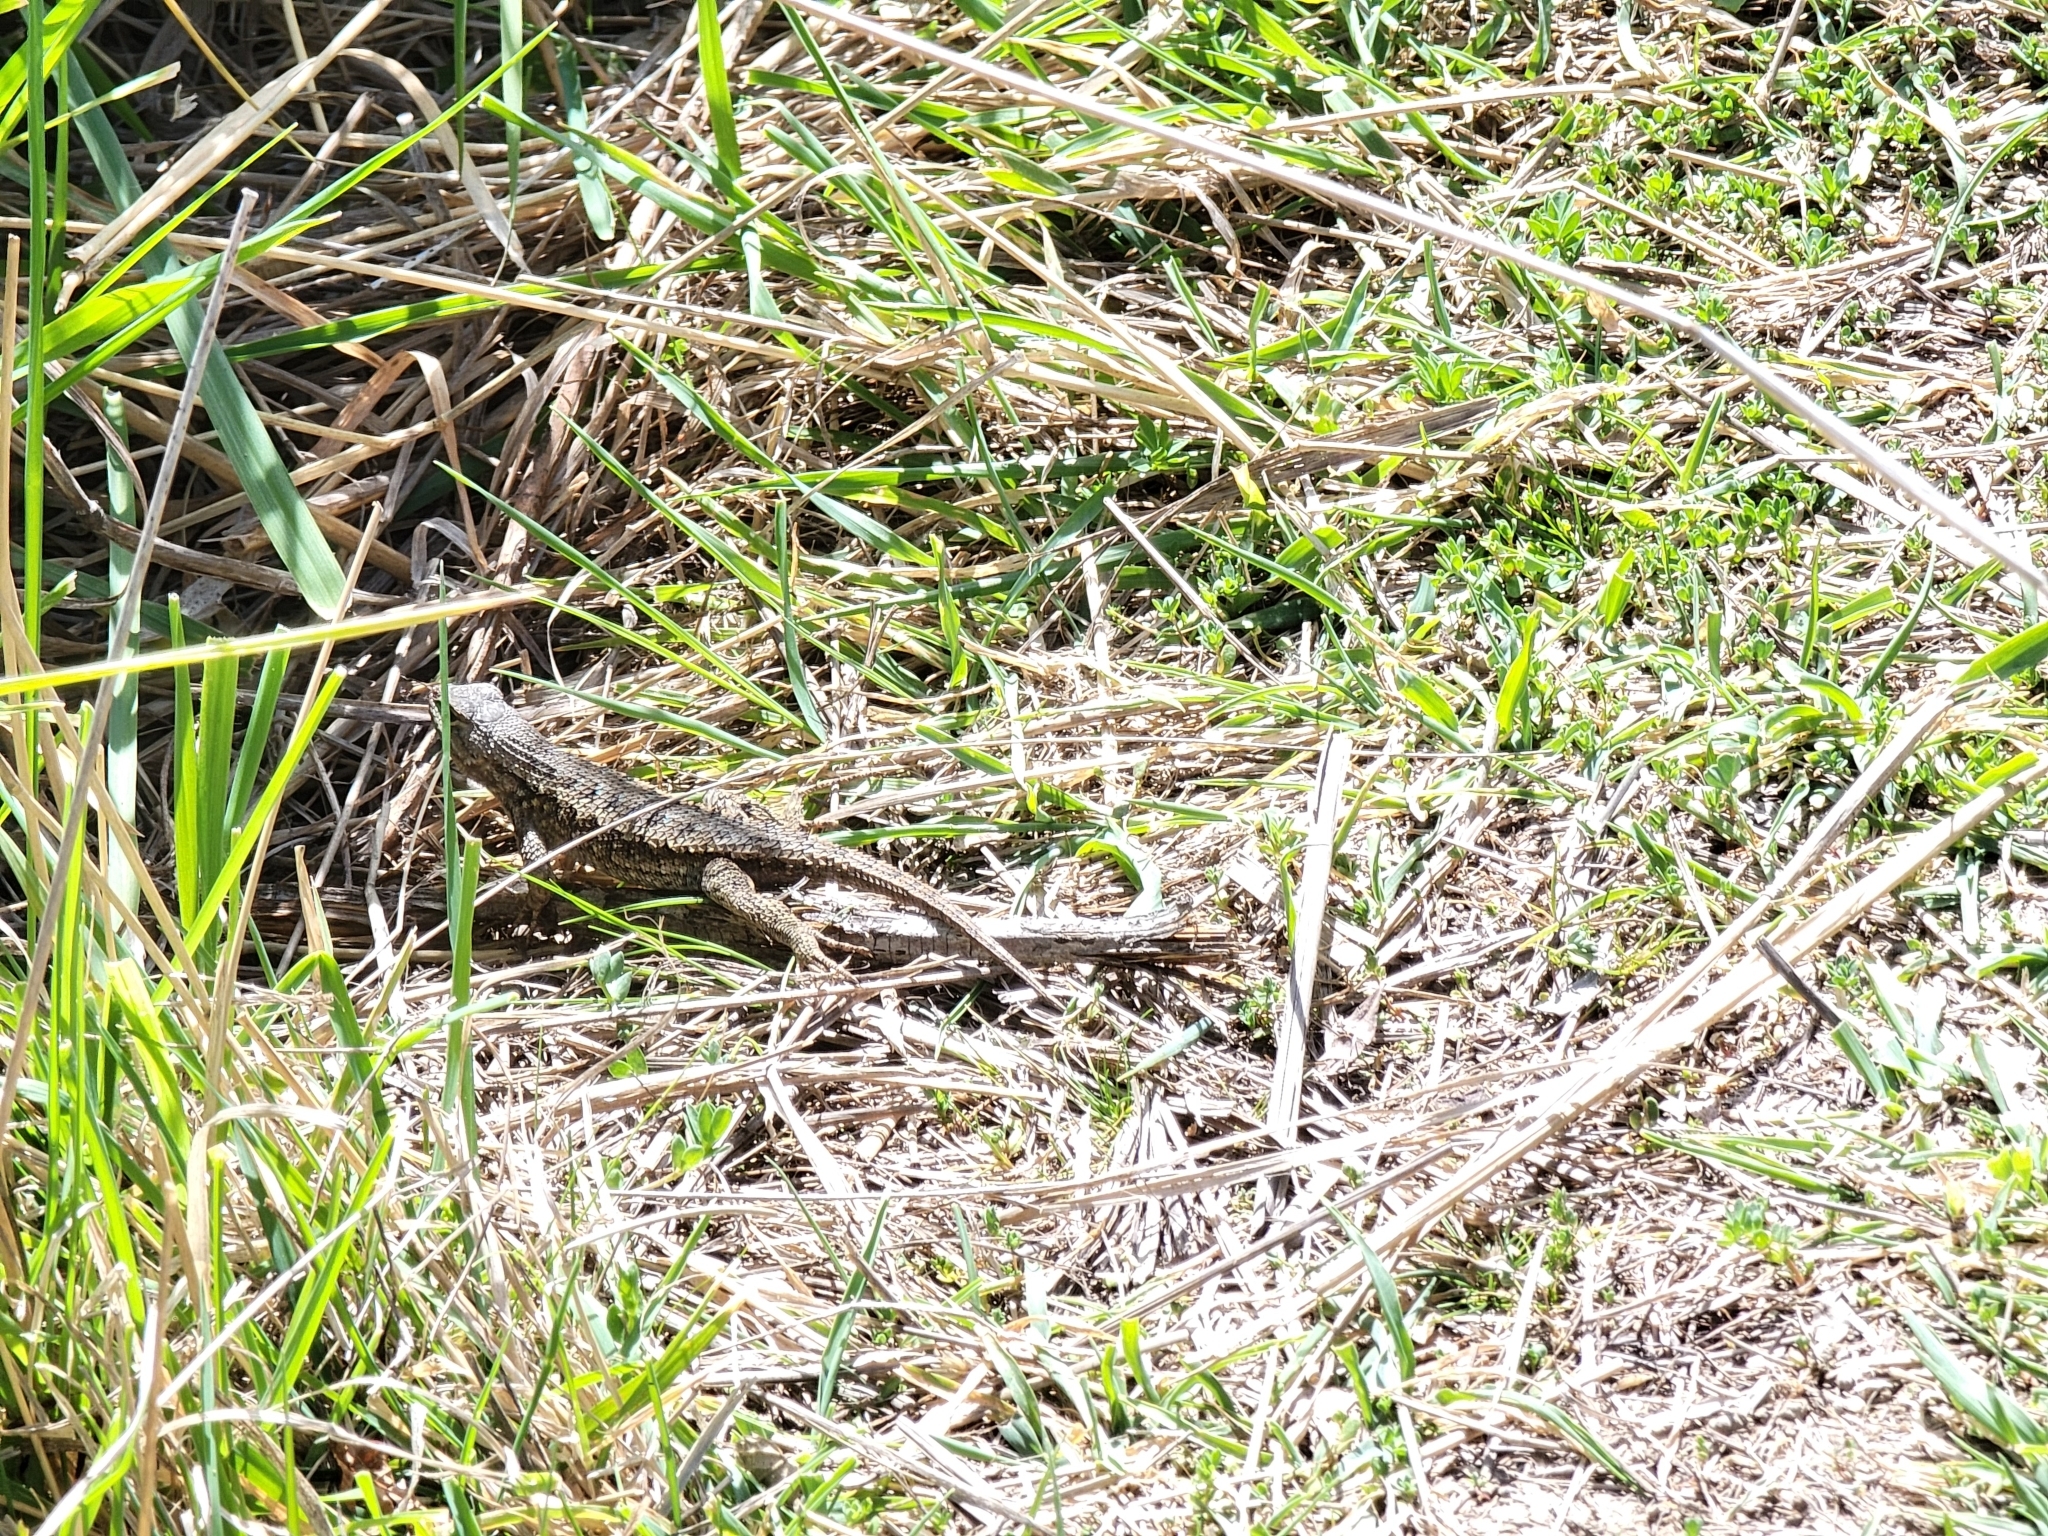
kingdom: Animalia
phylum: Chordata
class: Squamata
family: Phrynosomatidae
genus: Sceloporus
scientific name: Sceloporus occidentalis
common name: Western fence lizard
